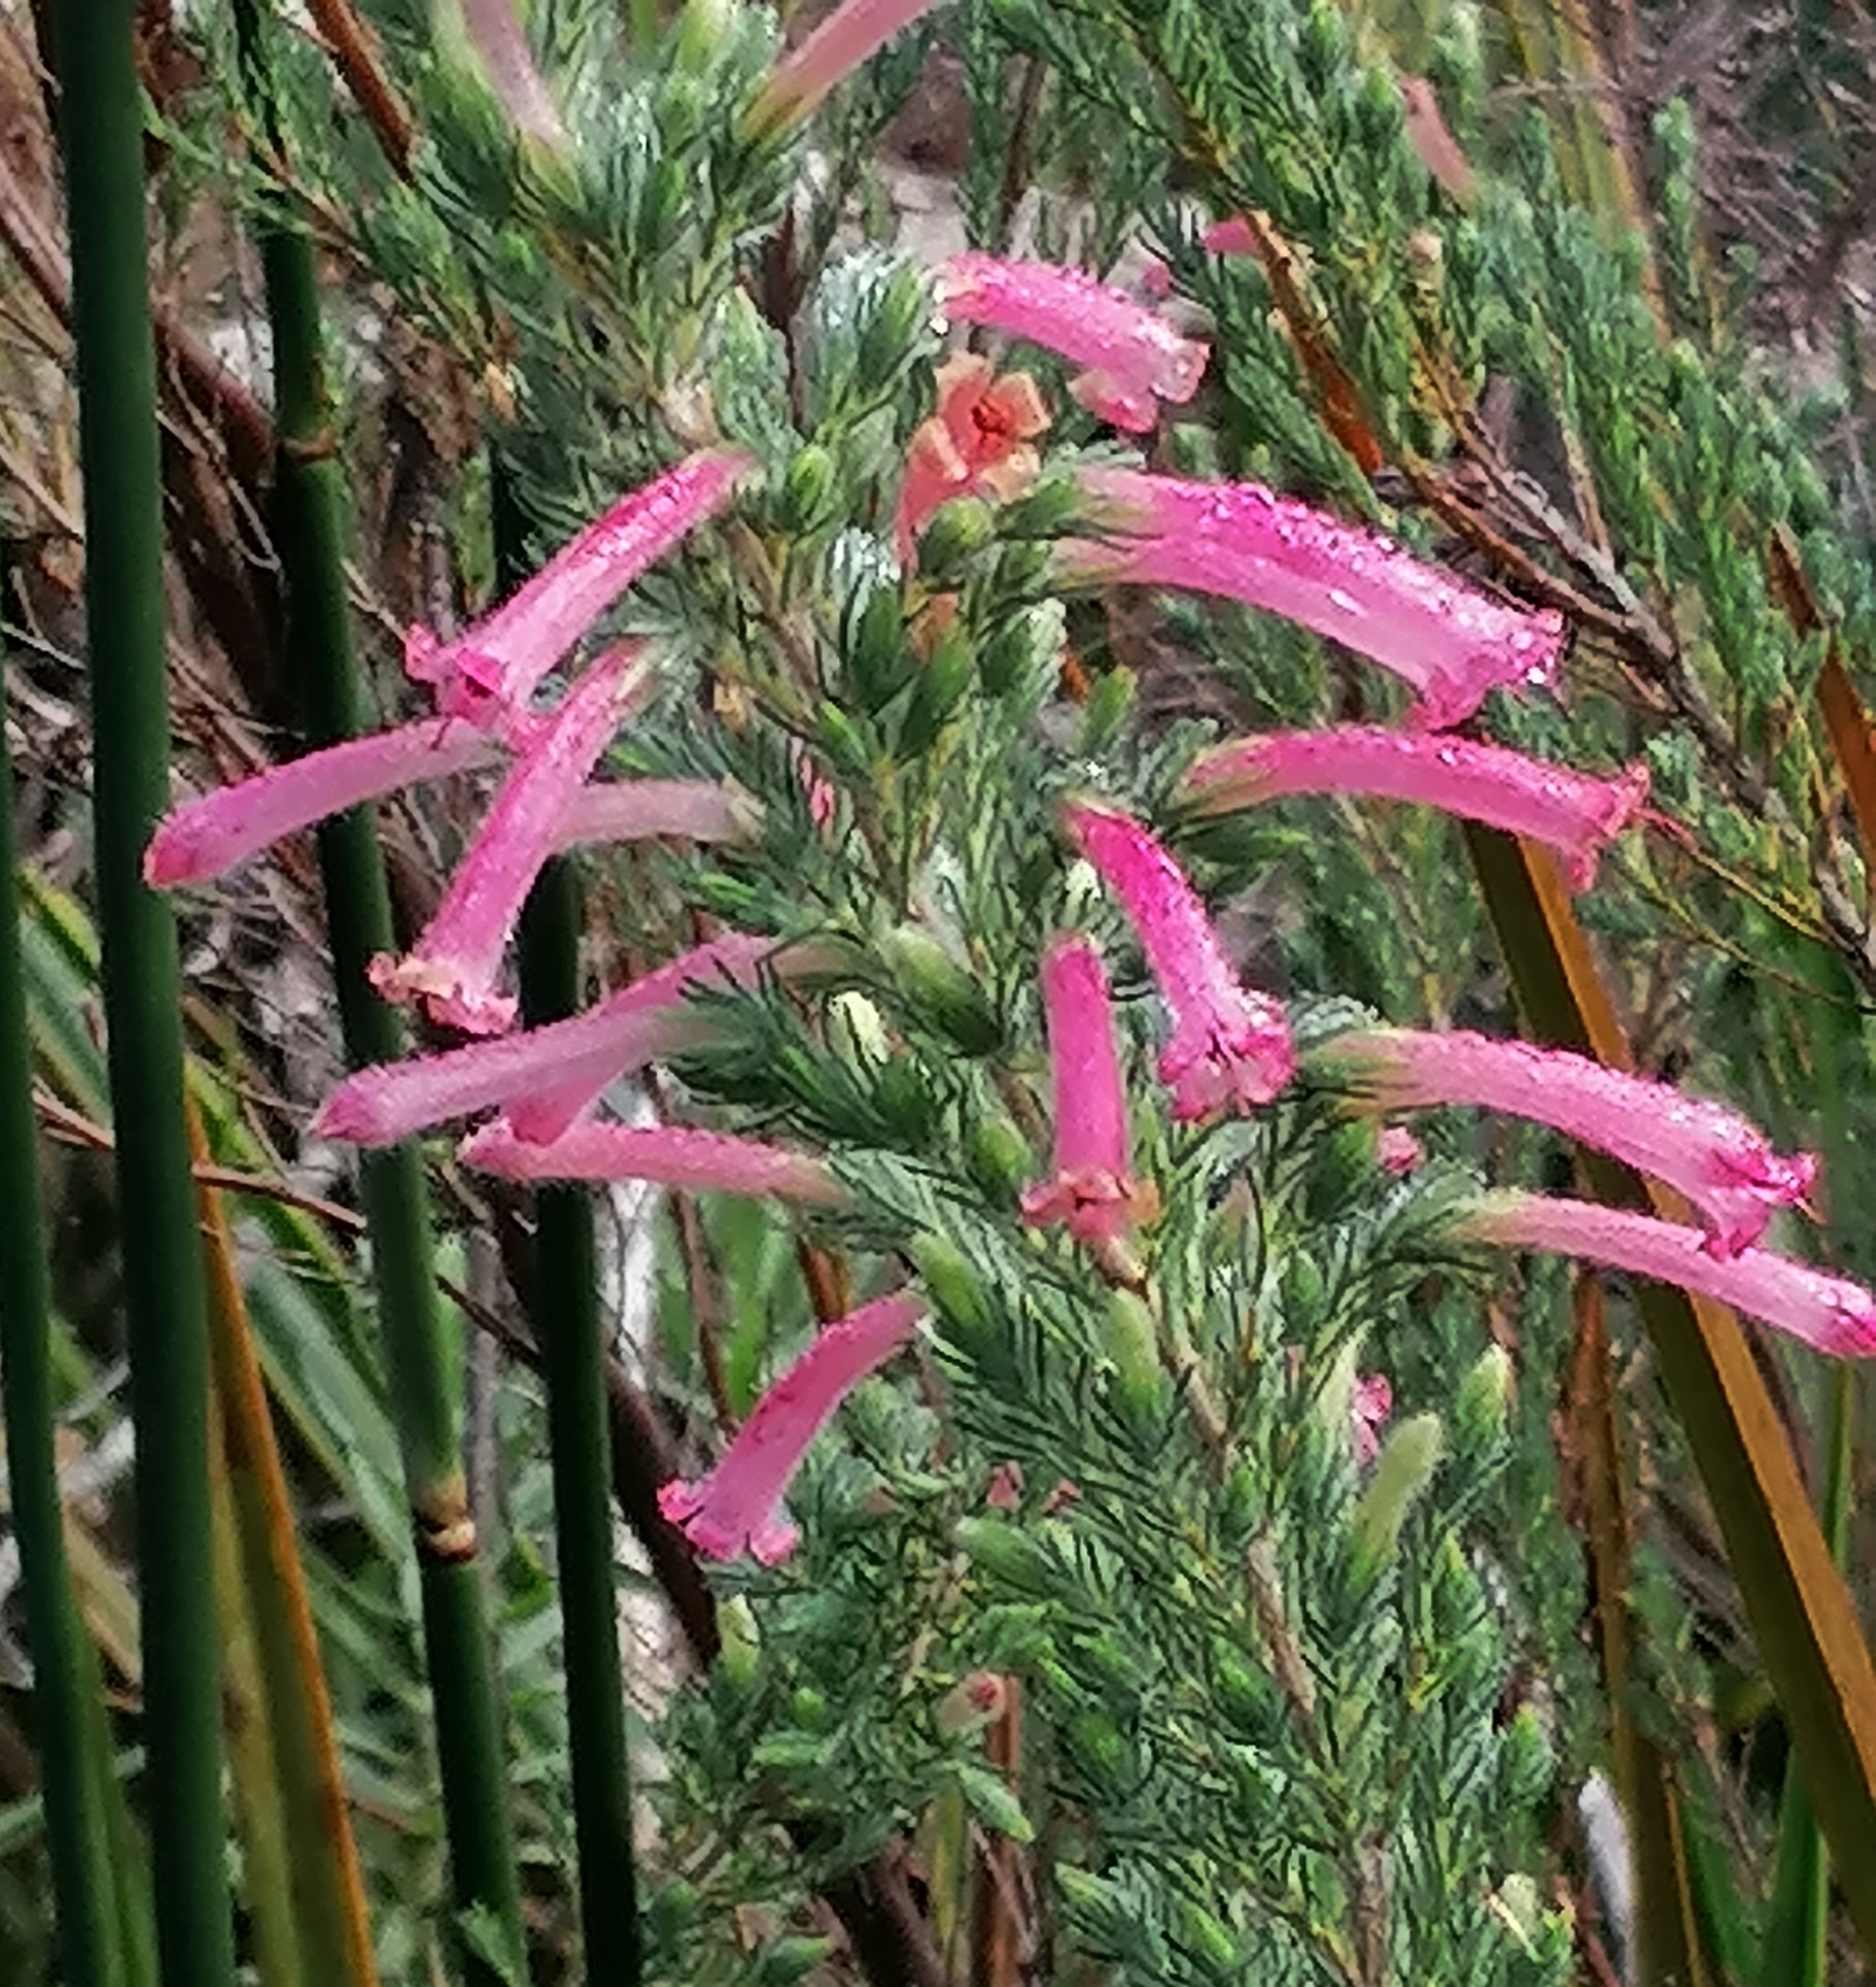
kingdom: Plantae
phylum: Tracheophyta
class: Magnoliopsida
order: Ericales
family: Ericaceae
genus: Erica
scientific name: Erica curviflora
